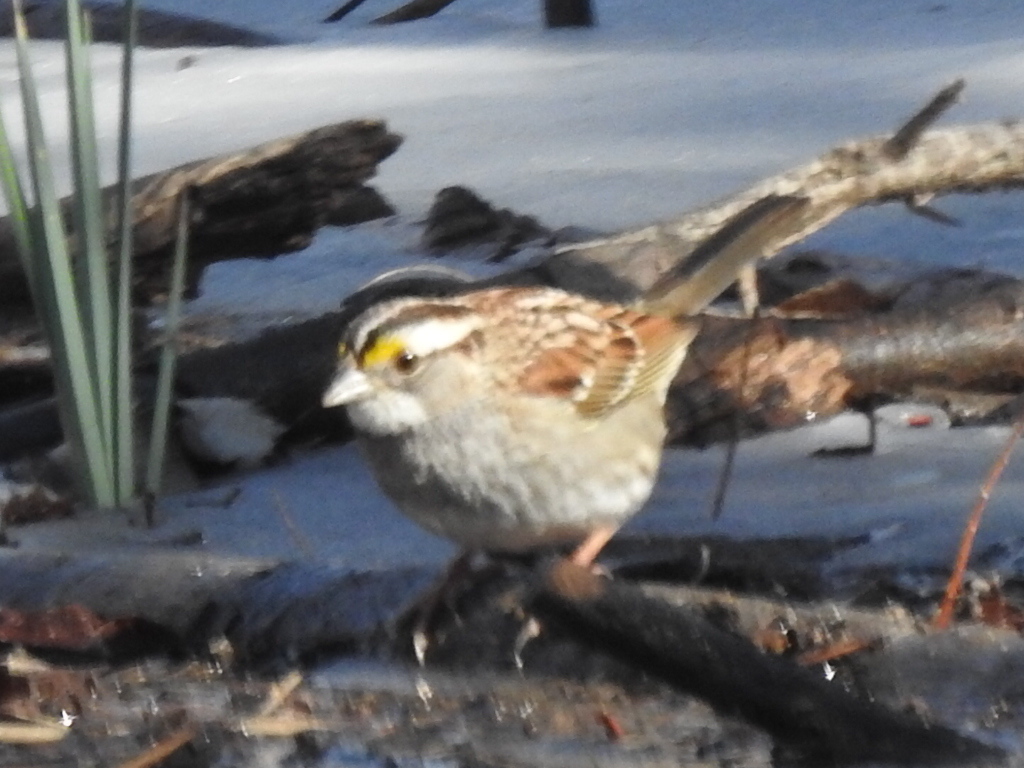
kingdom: Animalia
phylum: Chordata
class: Aves
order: Passeriformes
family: Passerellidae
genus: Zonotrichia
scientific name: Zonotrichia albicollis
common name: White-throated sparrow
